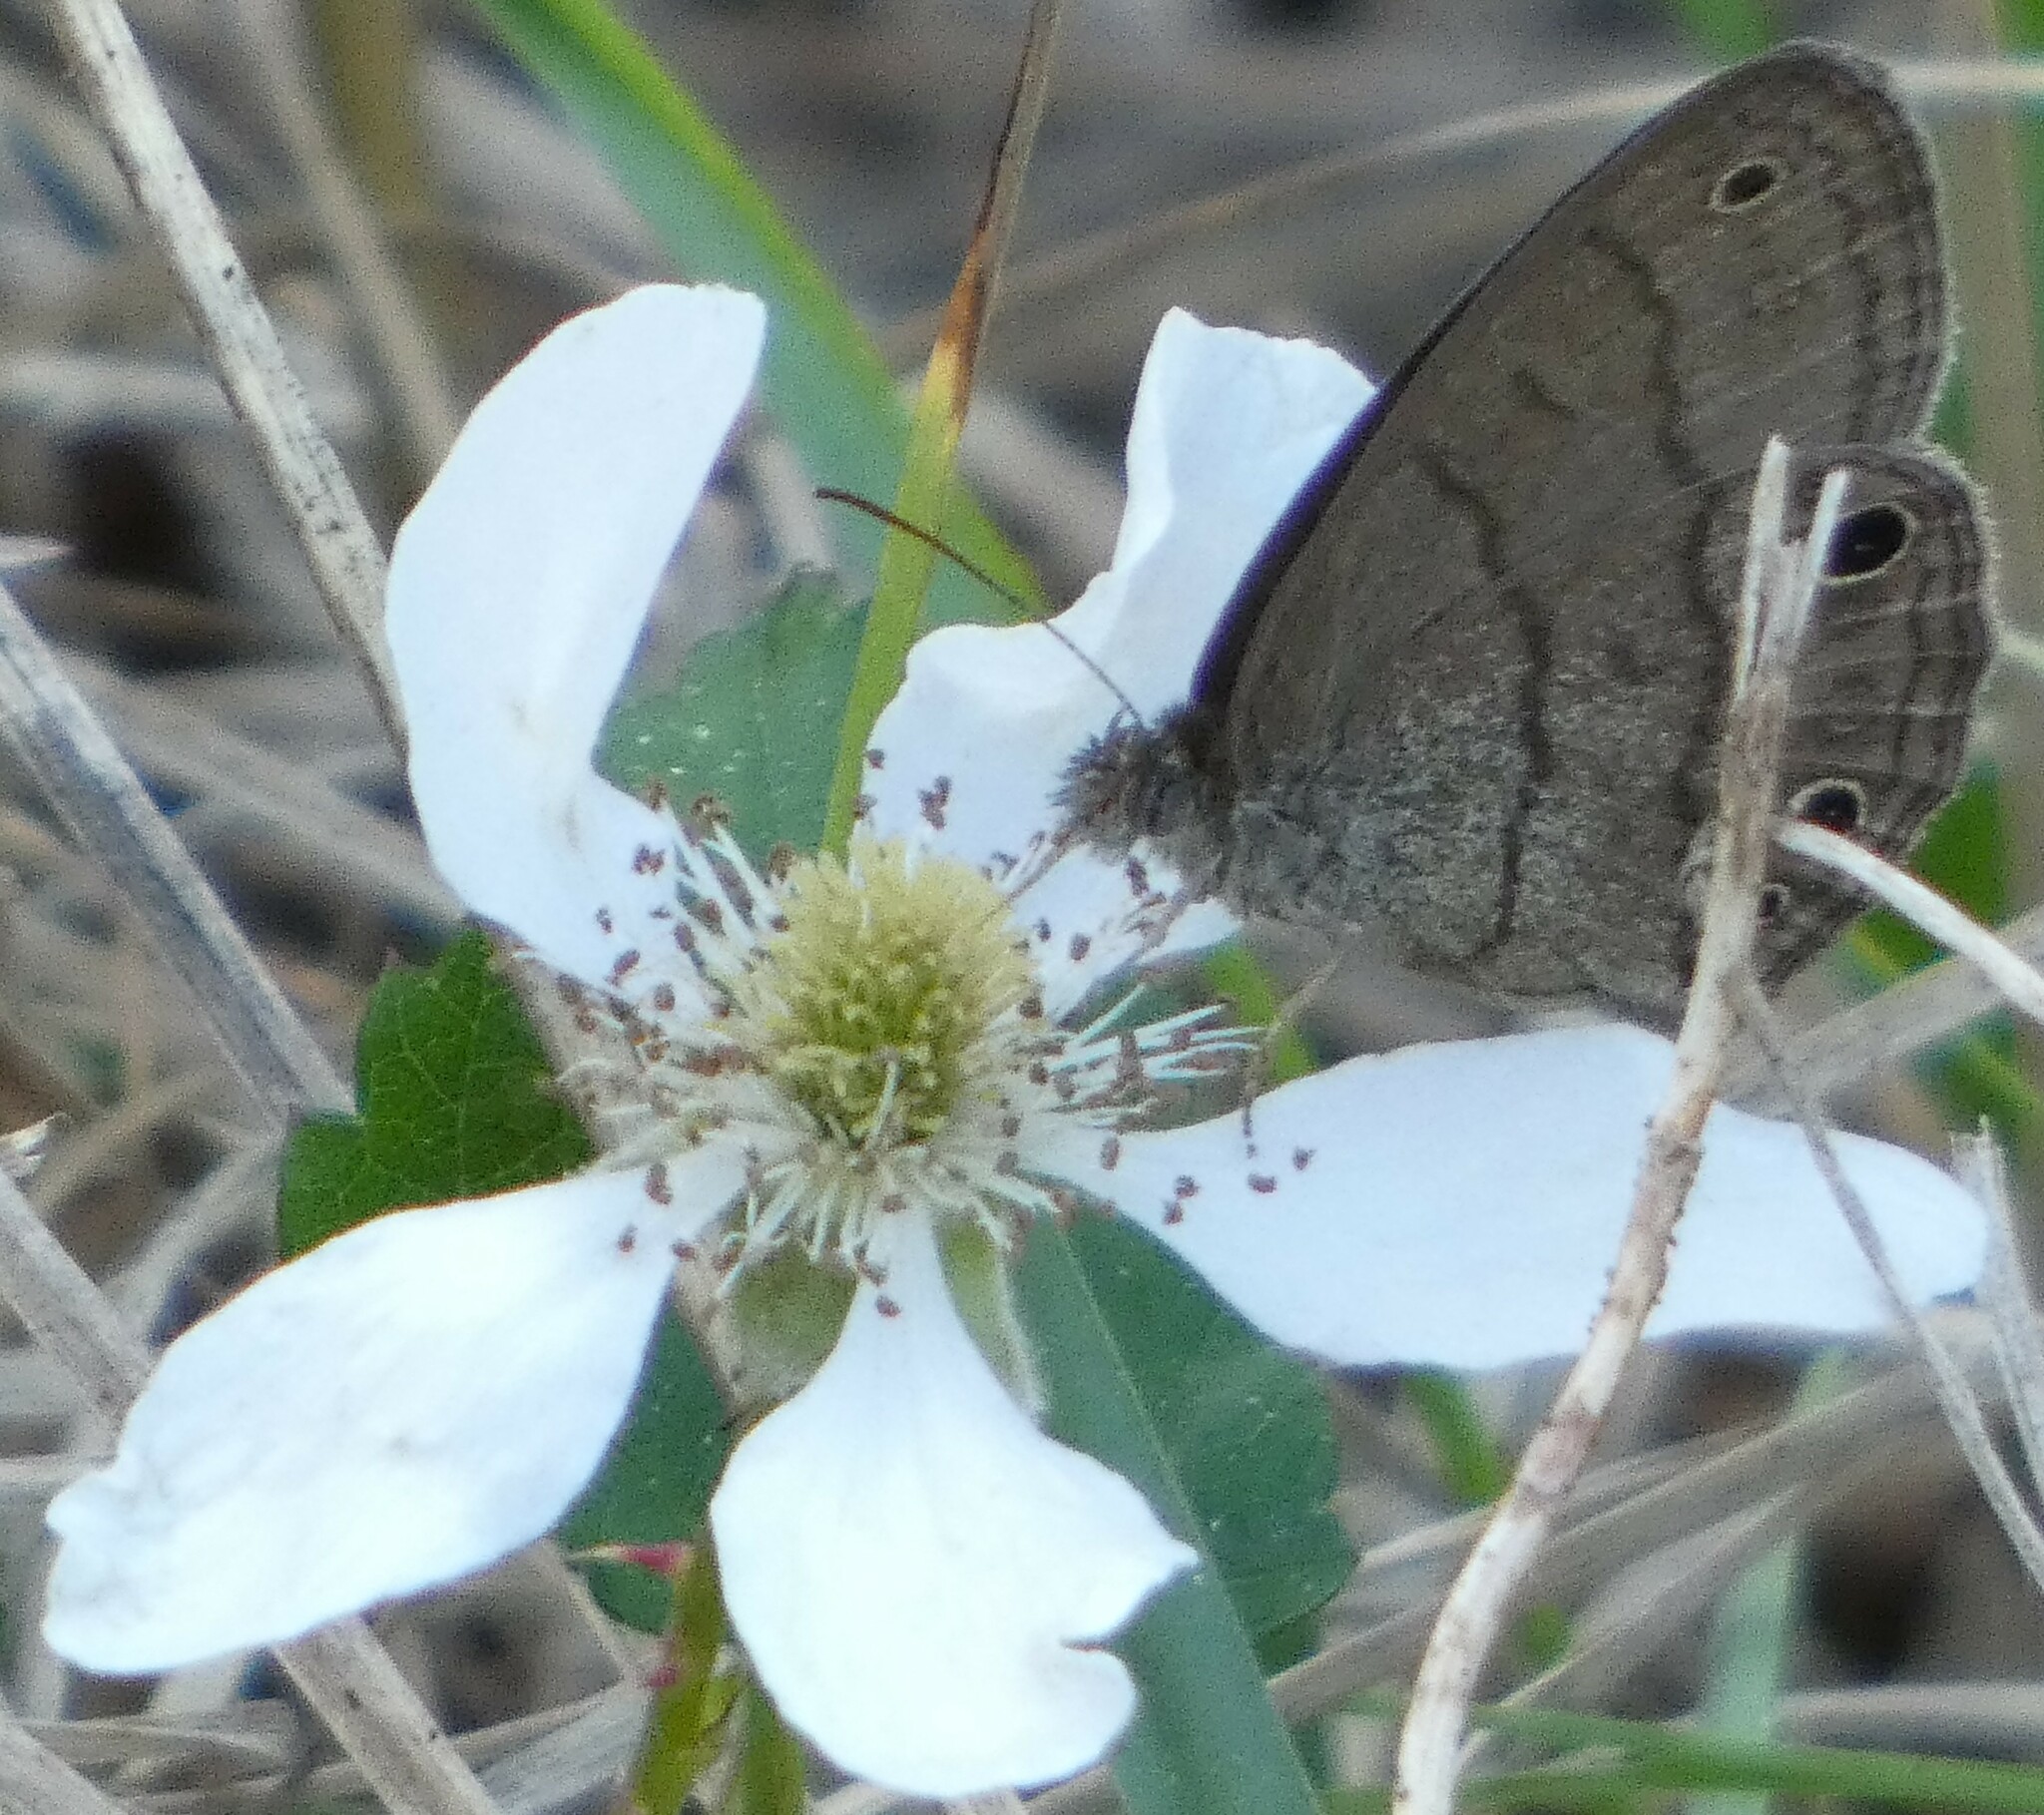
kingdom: Animalia
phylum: Arthropoda
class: Insecta
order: Lepidoptera
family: Nymphalidae
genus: Hermeuptychia
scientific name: Hermeuptychia hermes
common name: Hermes satyr
